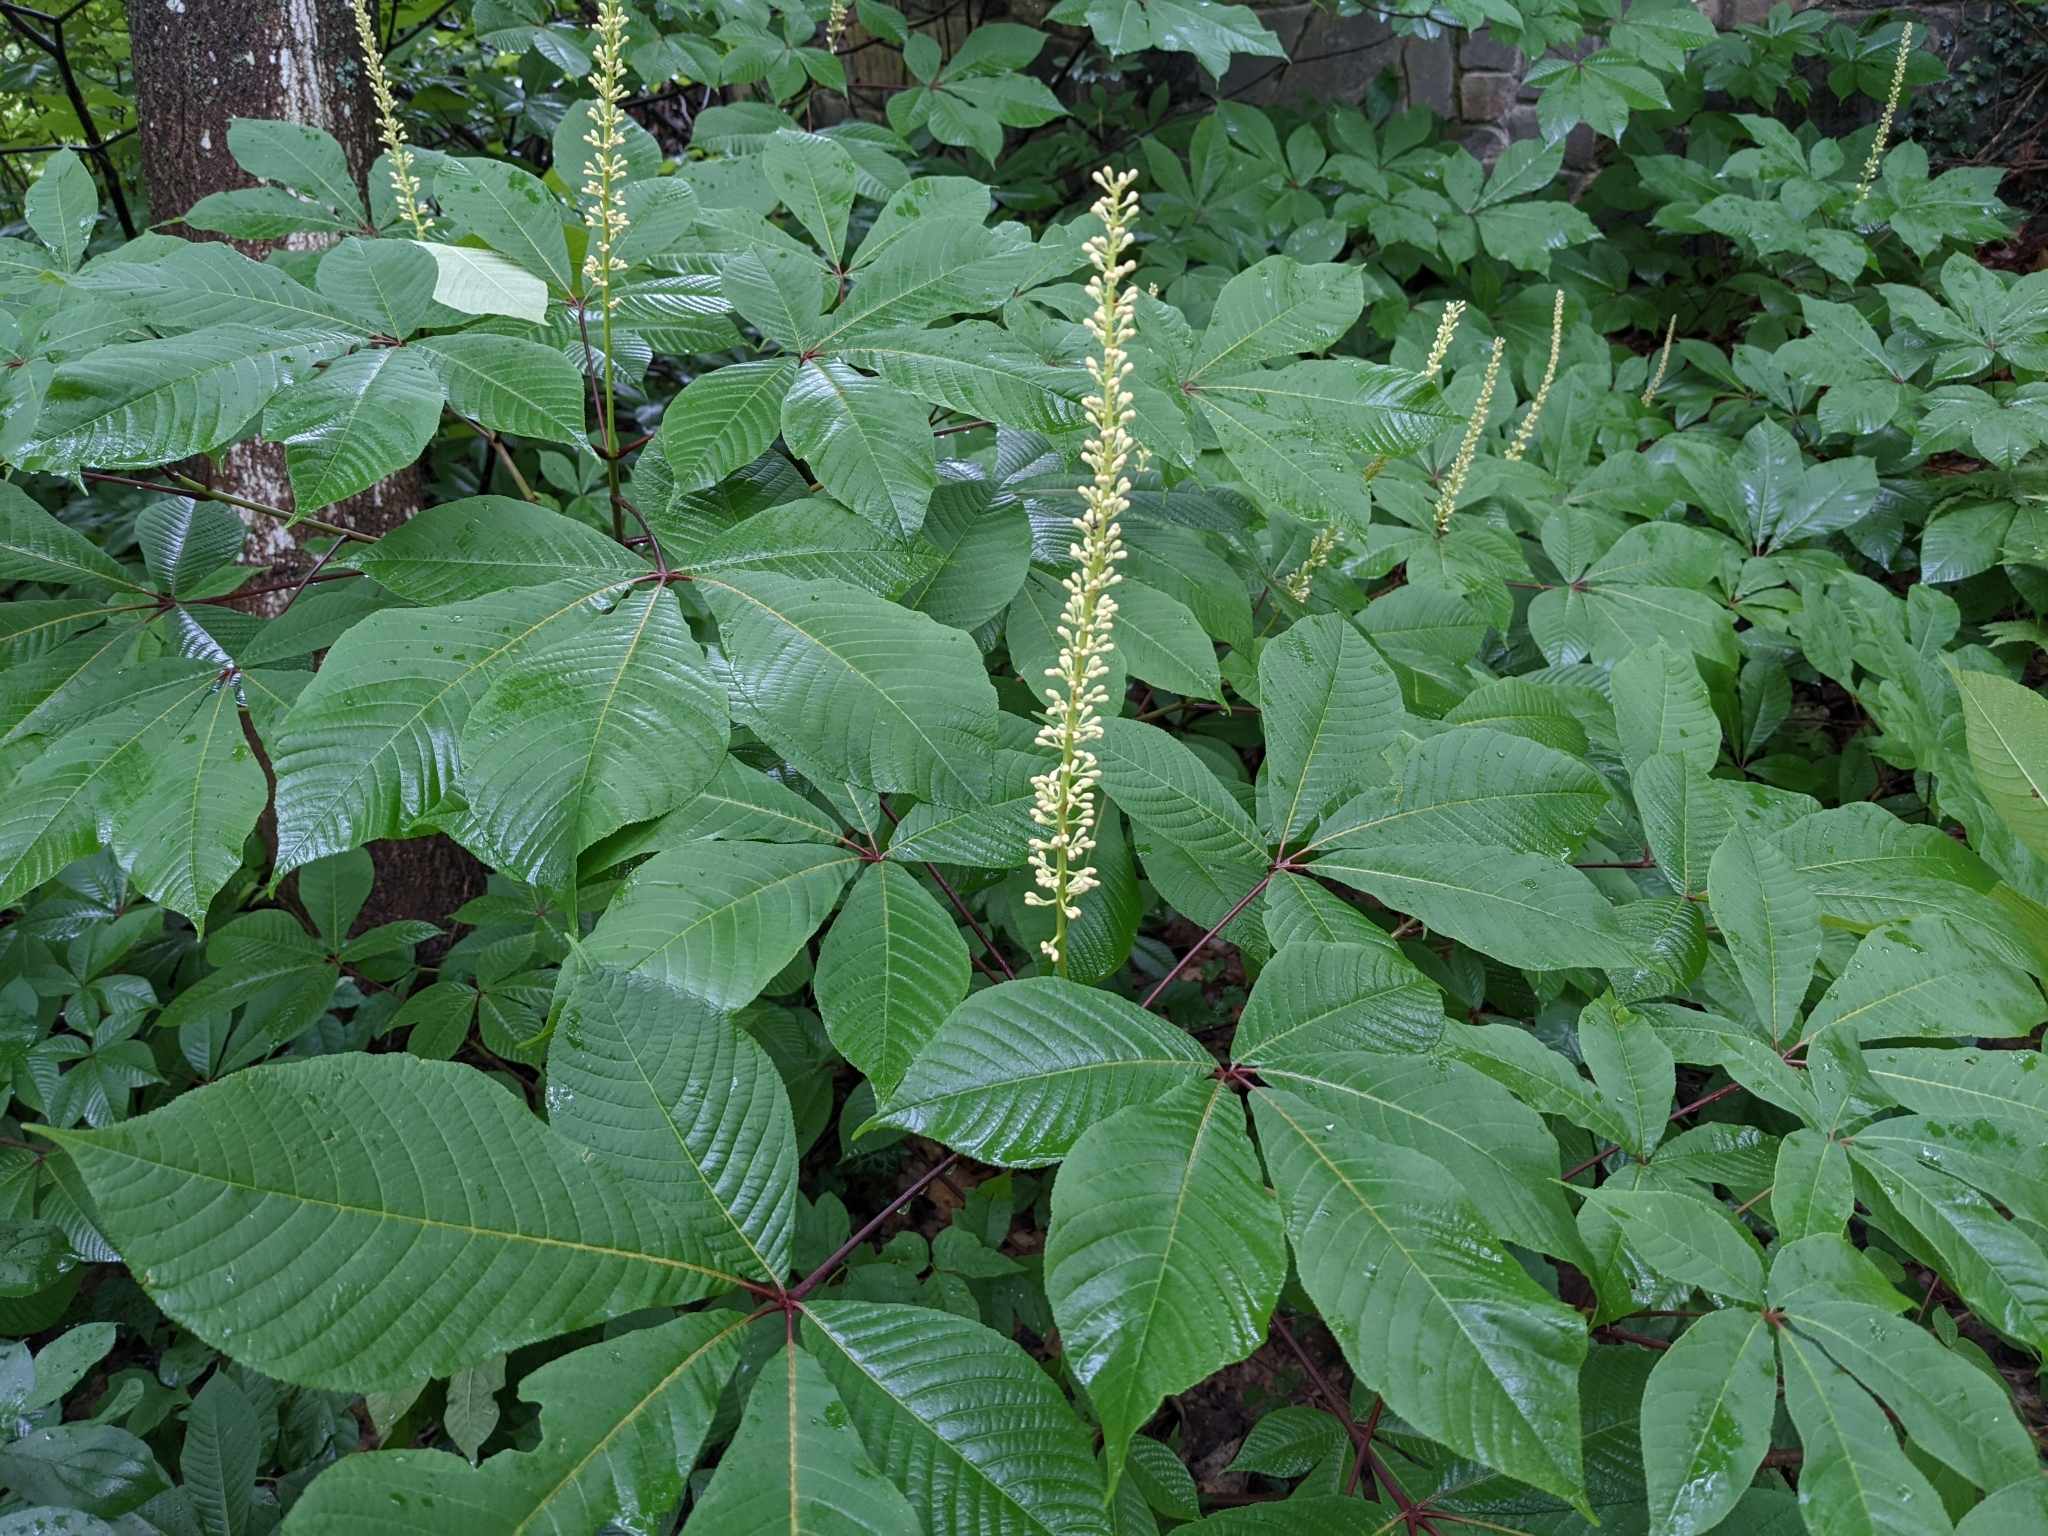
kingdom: Plantae
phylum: Tracheophyta
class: Magnoliopsida
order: Sapindales
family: Sapindaceae
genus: Aesculus
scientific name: Aesculus parviflora
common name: Bottlebrush buckeye
